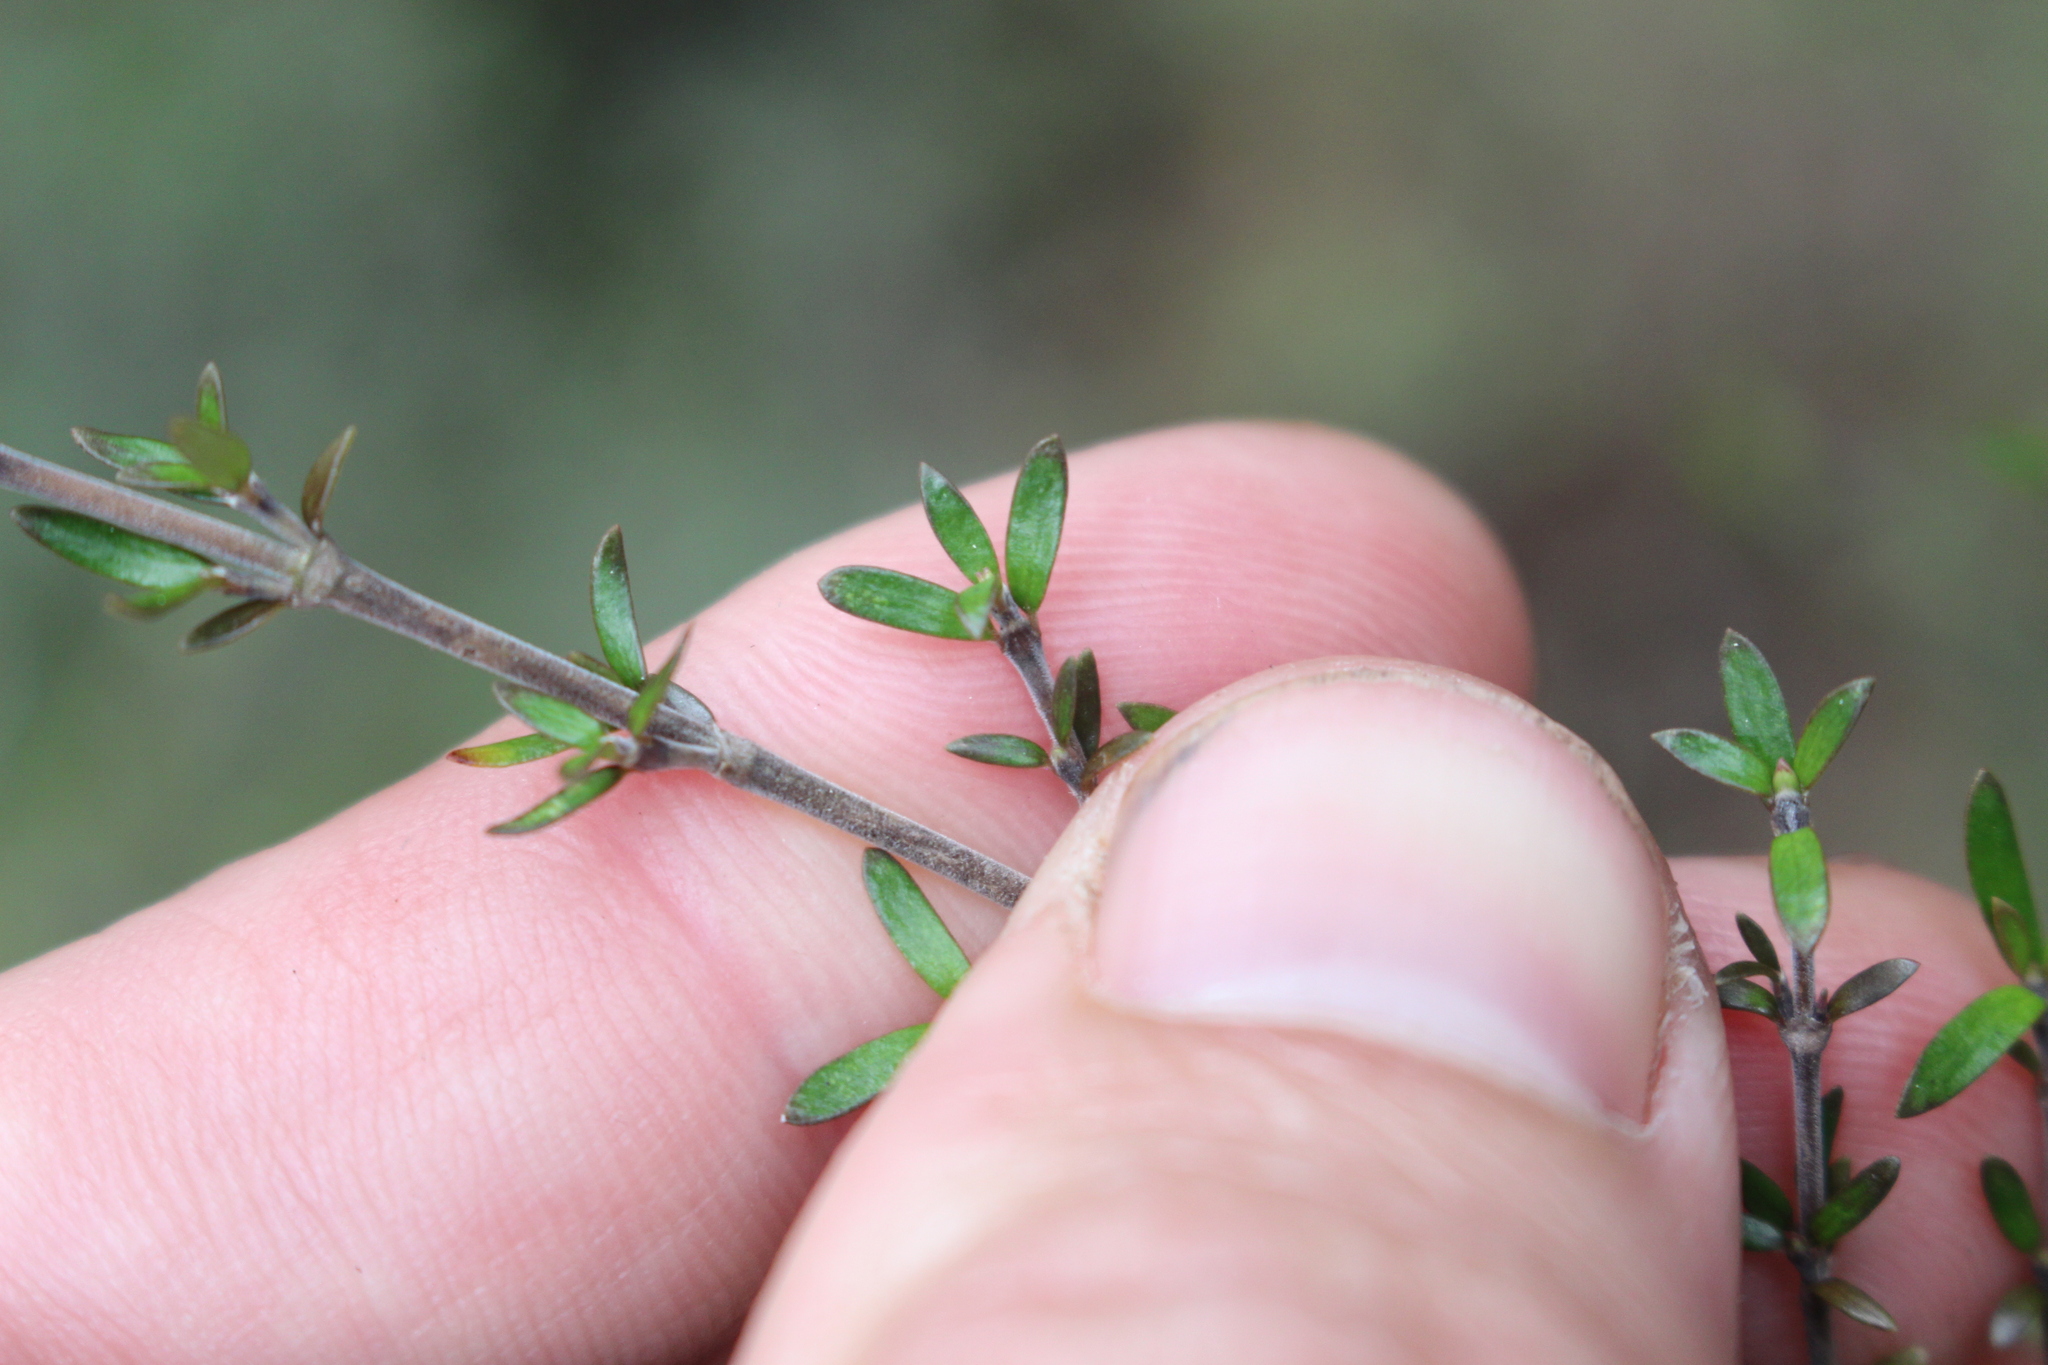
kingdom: Plantae
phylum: Tracheophyta
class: Magnoliopsida
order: Gentianales
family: Rubiaceae
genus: Coprosma
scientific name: Coprosma microcarpa
